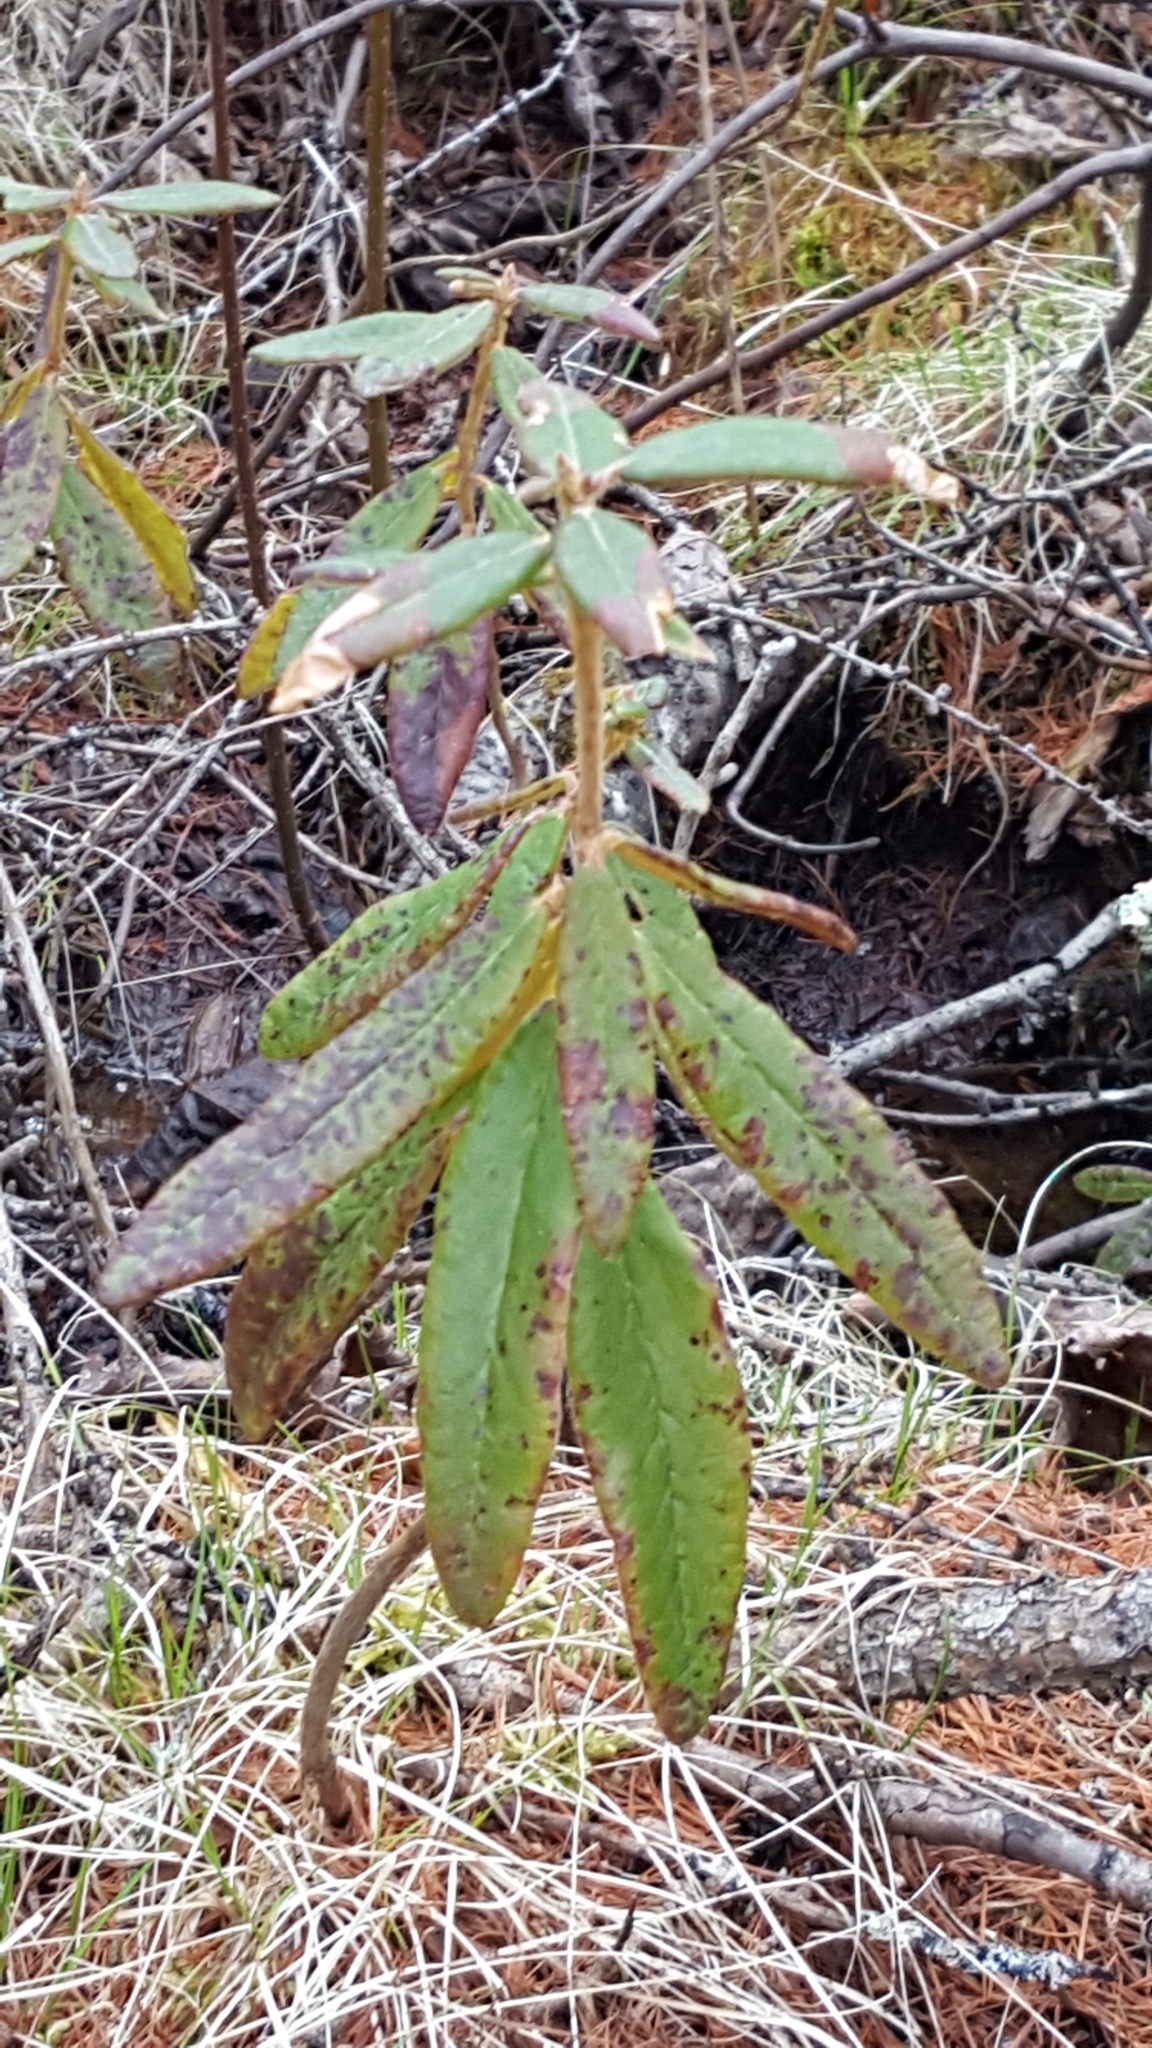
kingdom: Plantae
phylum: Tracheophyta
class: Magnoliopsida
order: Ericales
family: Ericaceae
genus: Rhododendron
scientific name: Rhododendron groenlandicum
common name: Bog labrador tea
